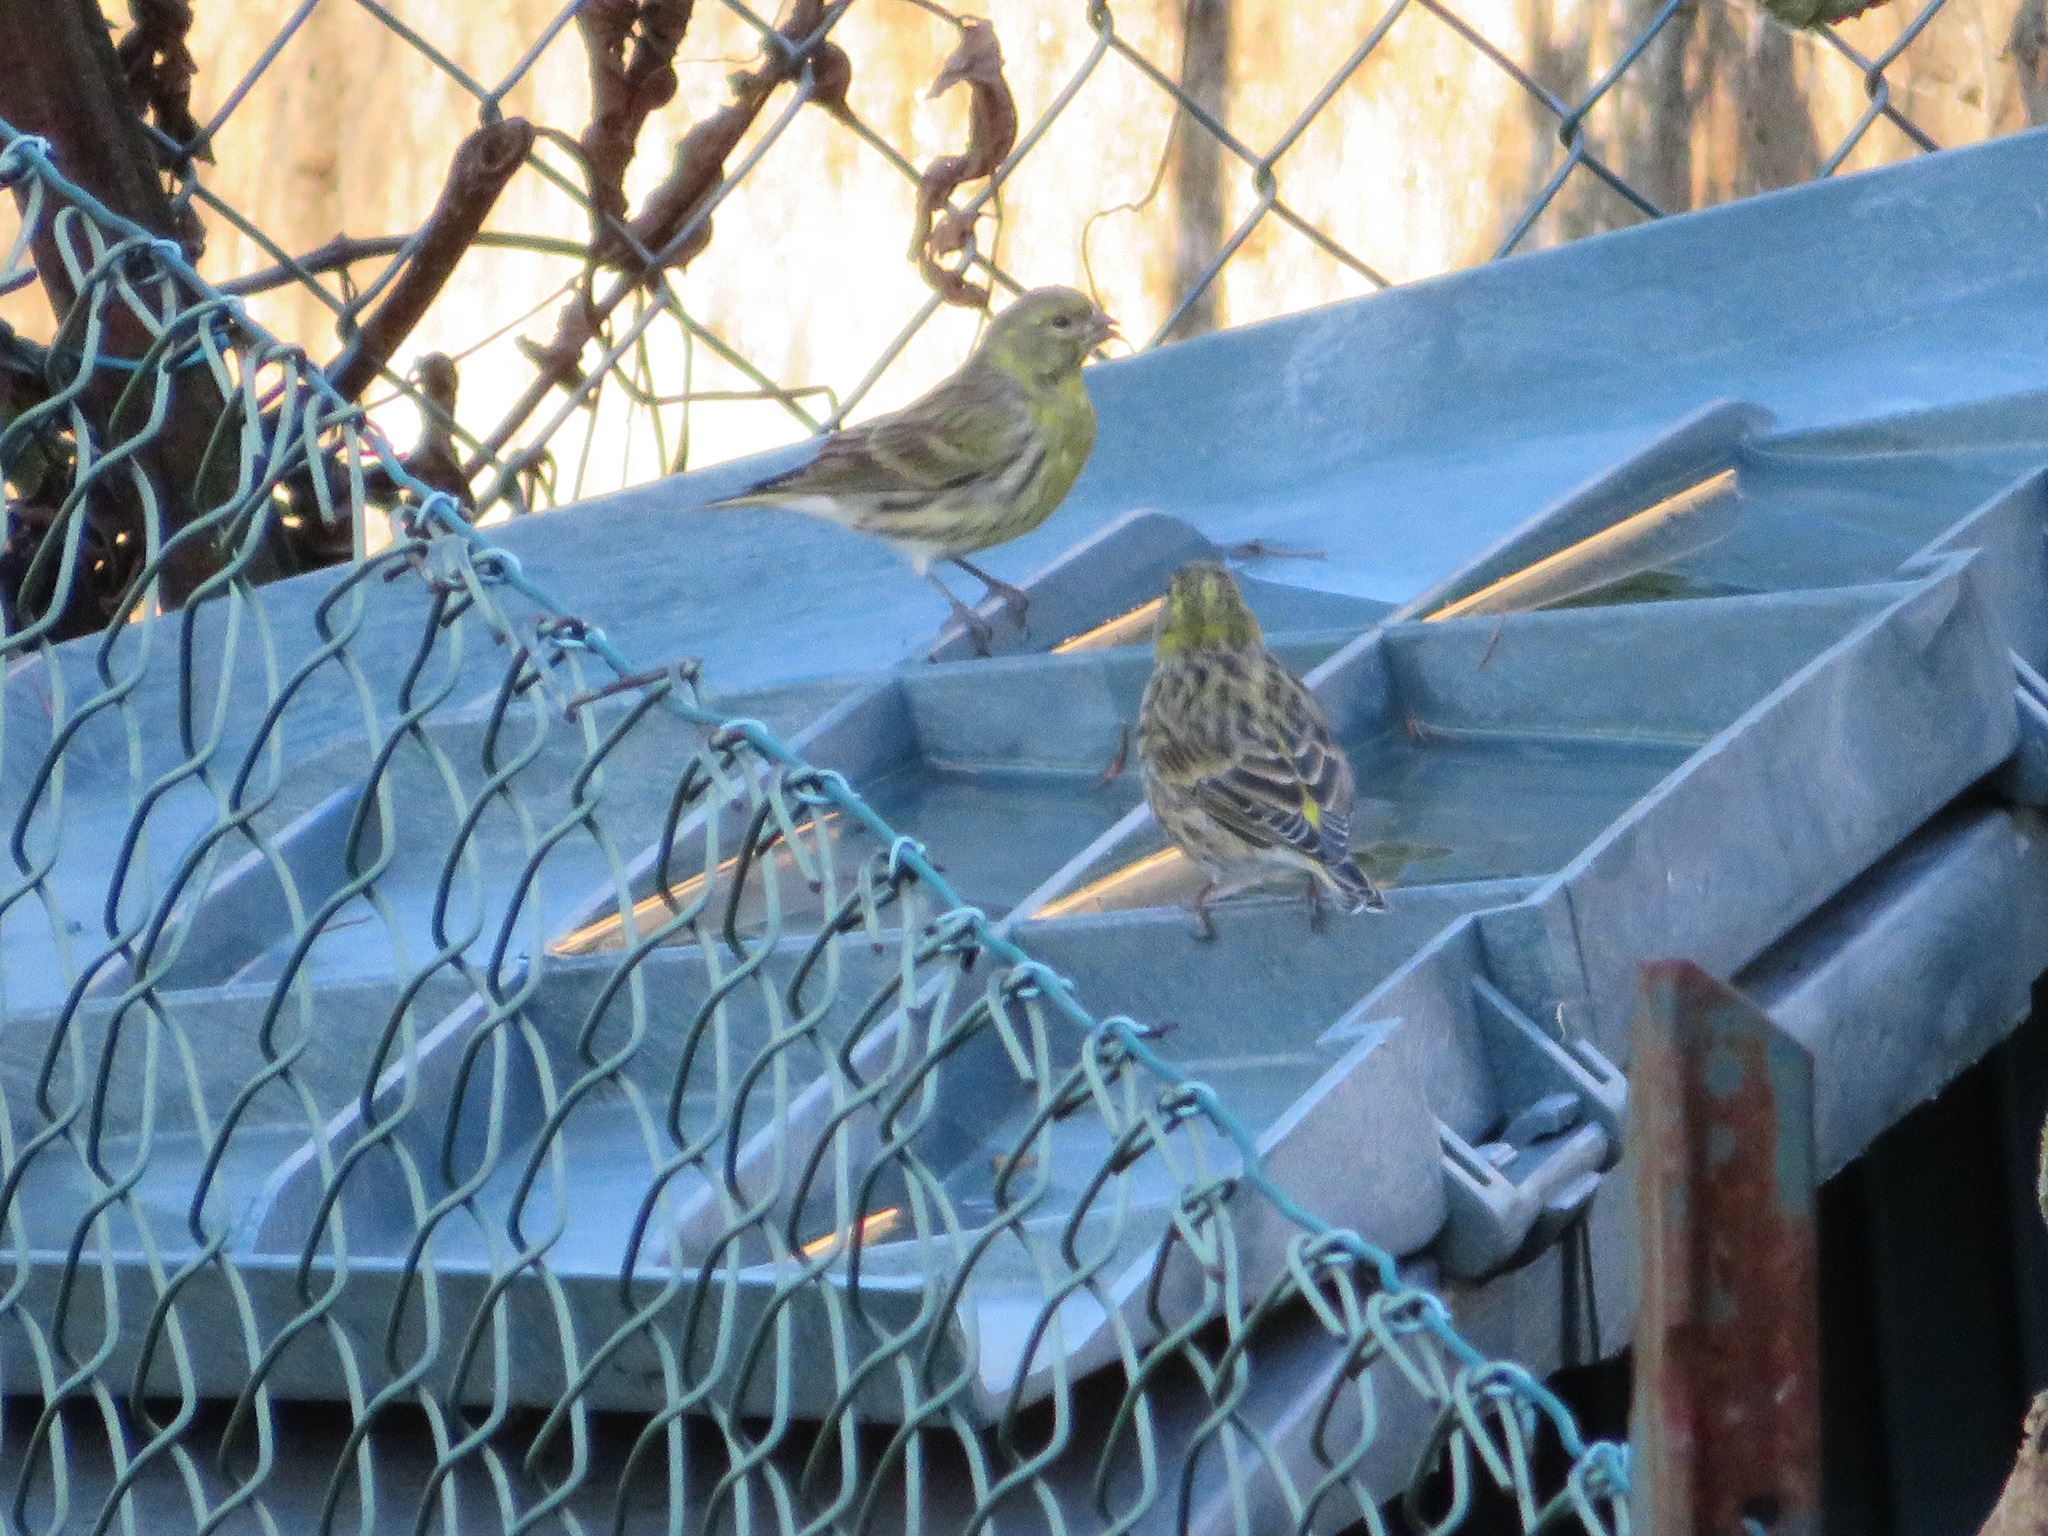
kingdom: Animalia
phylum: Chordata
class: Aves
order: Passeriformes
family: Fringillidae
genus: Serinus
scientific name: Serinus serinus
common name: European serin
